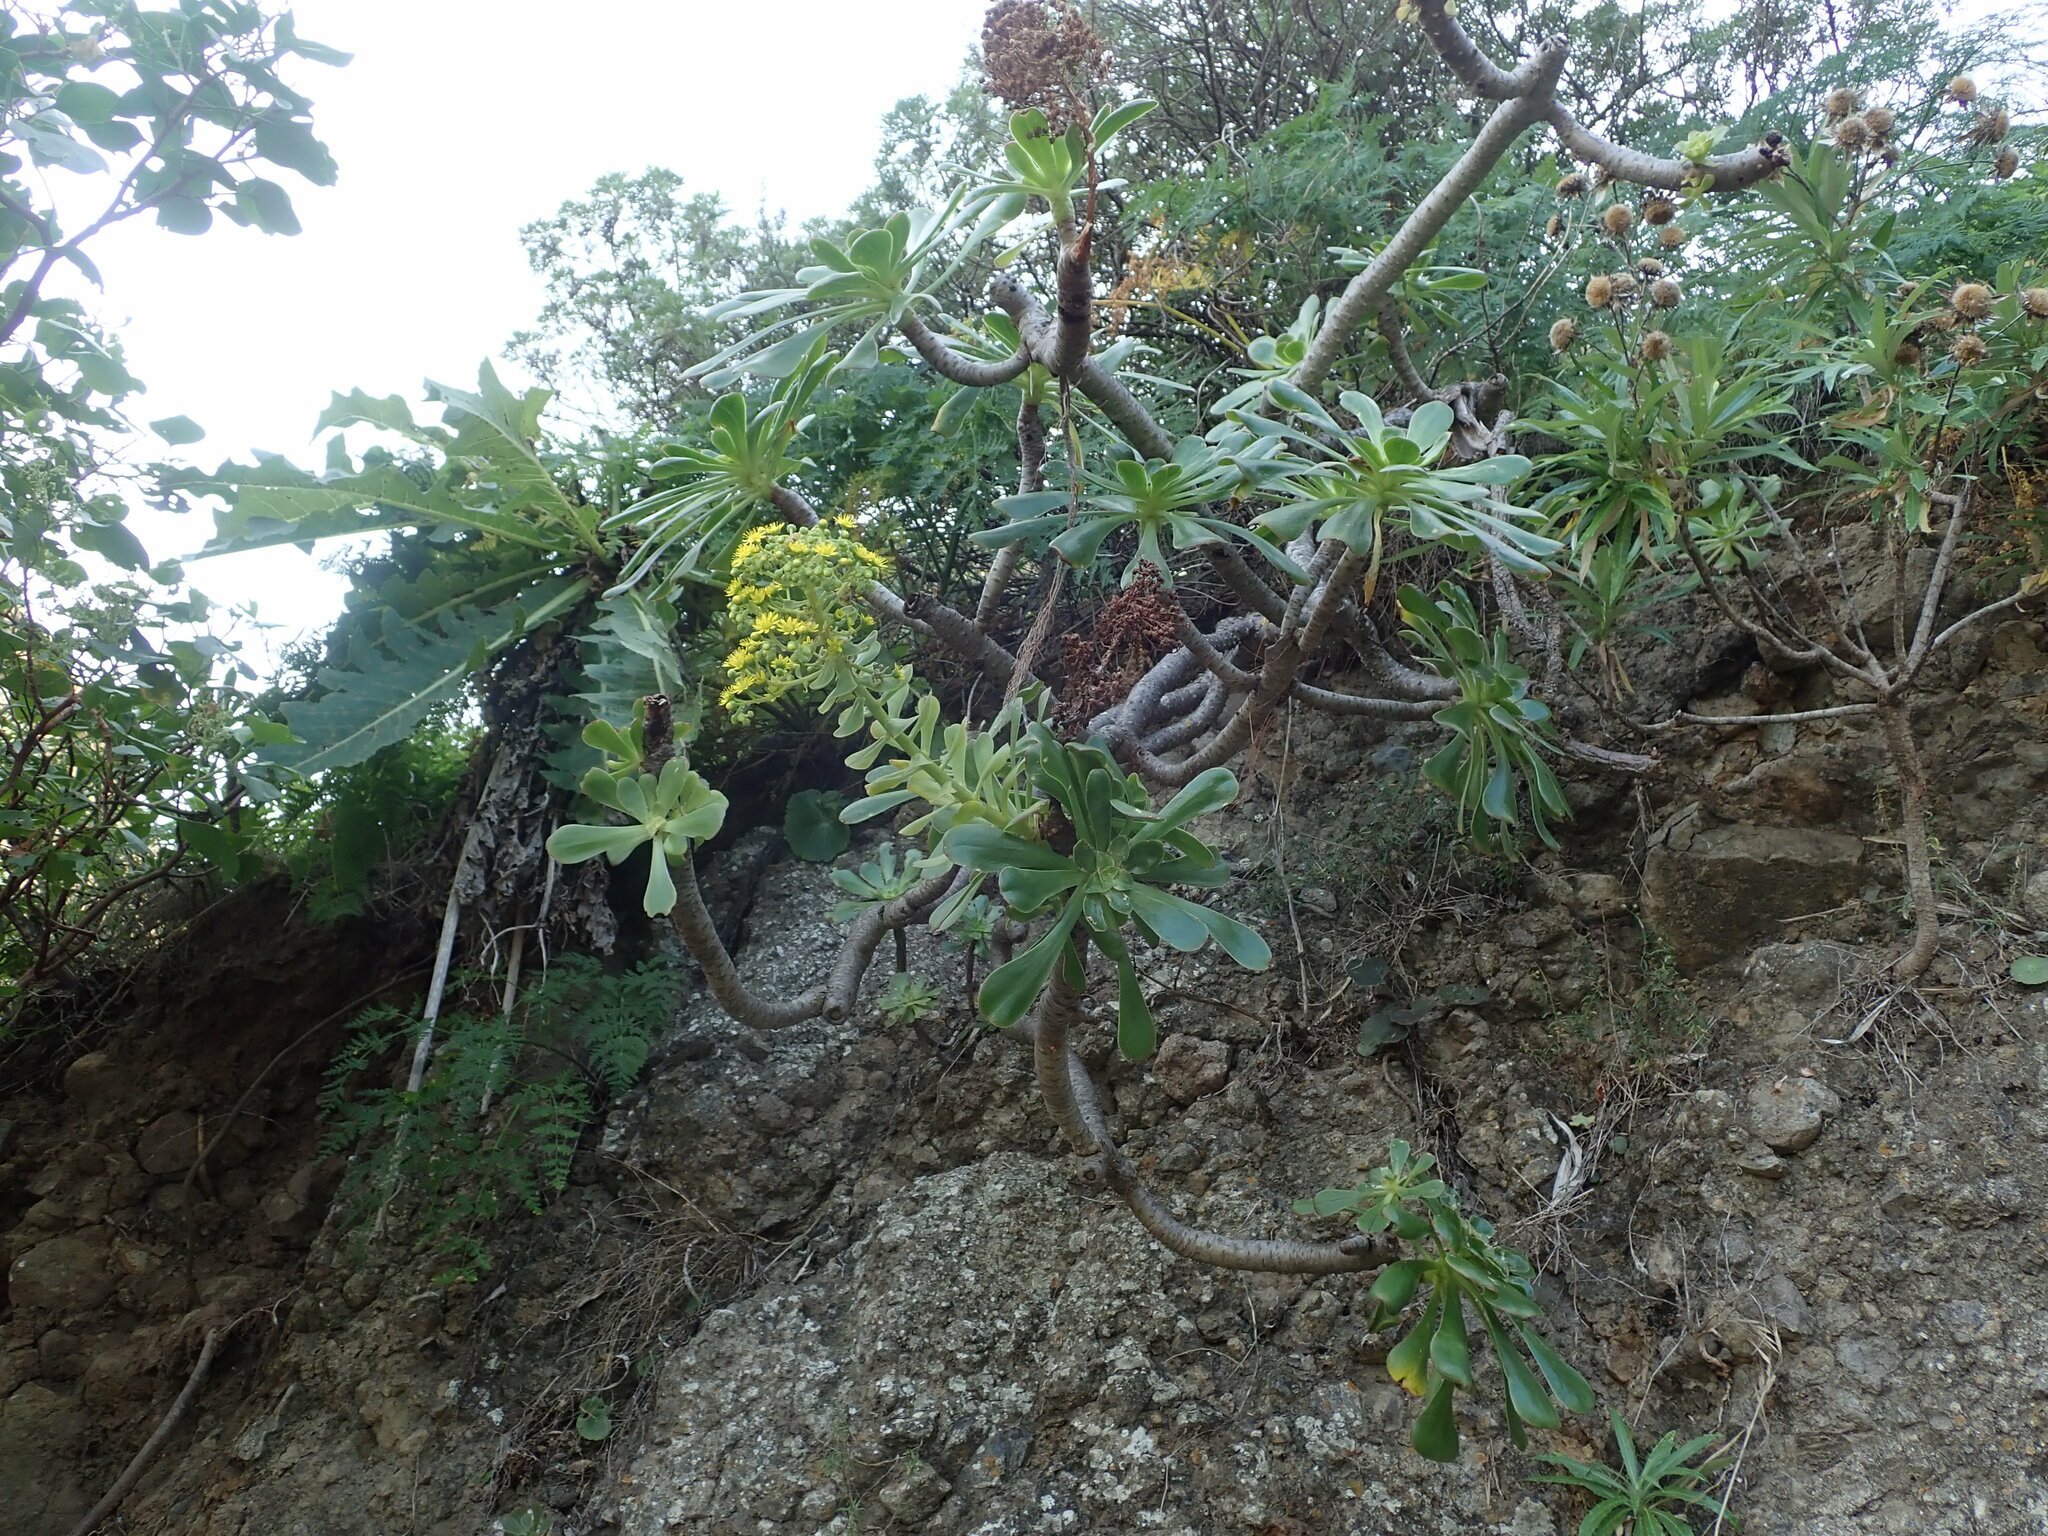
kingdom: Plantae
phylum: Tracheophyta
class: Magnoliopsida
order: Saxifragales
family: Crassulaceae
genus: Aeonium
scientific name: Aeonium arboreum
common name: Tree aeonium
